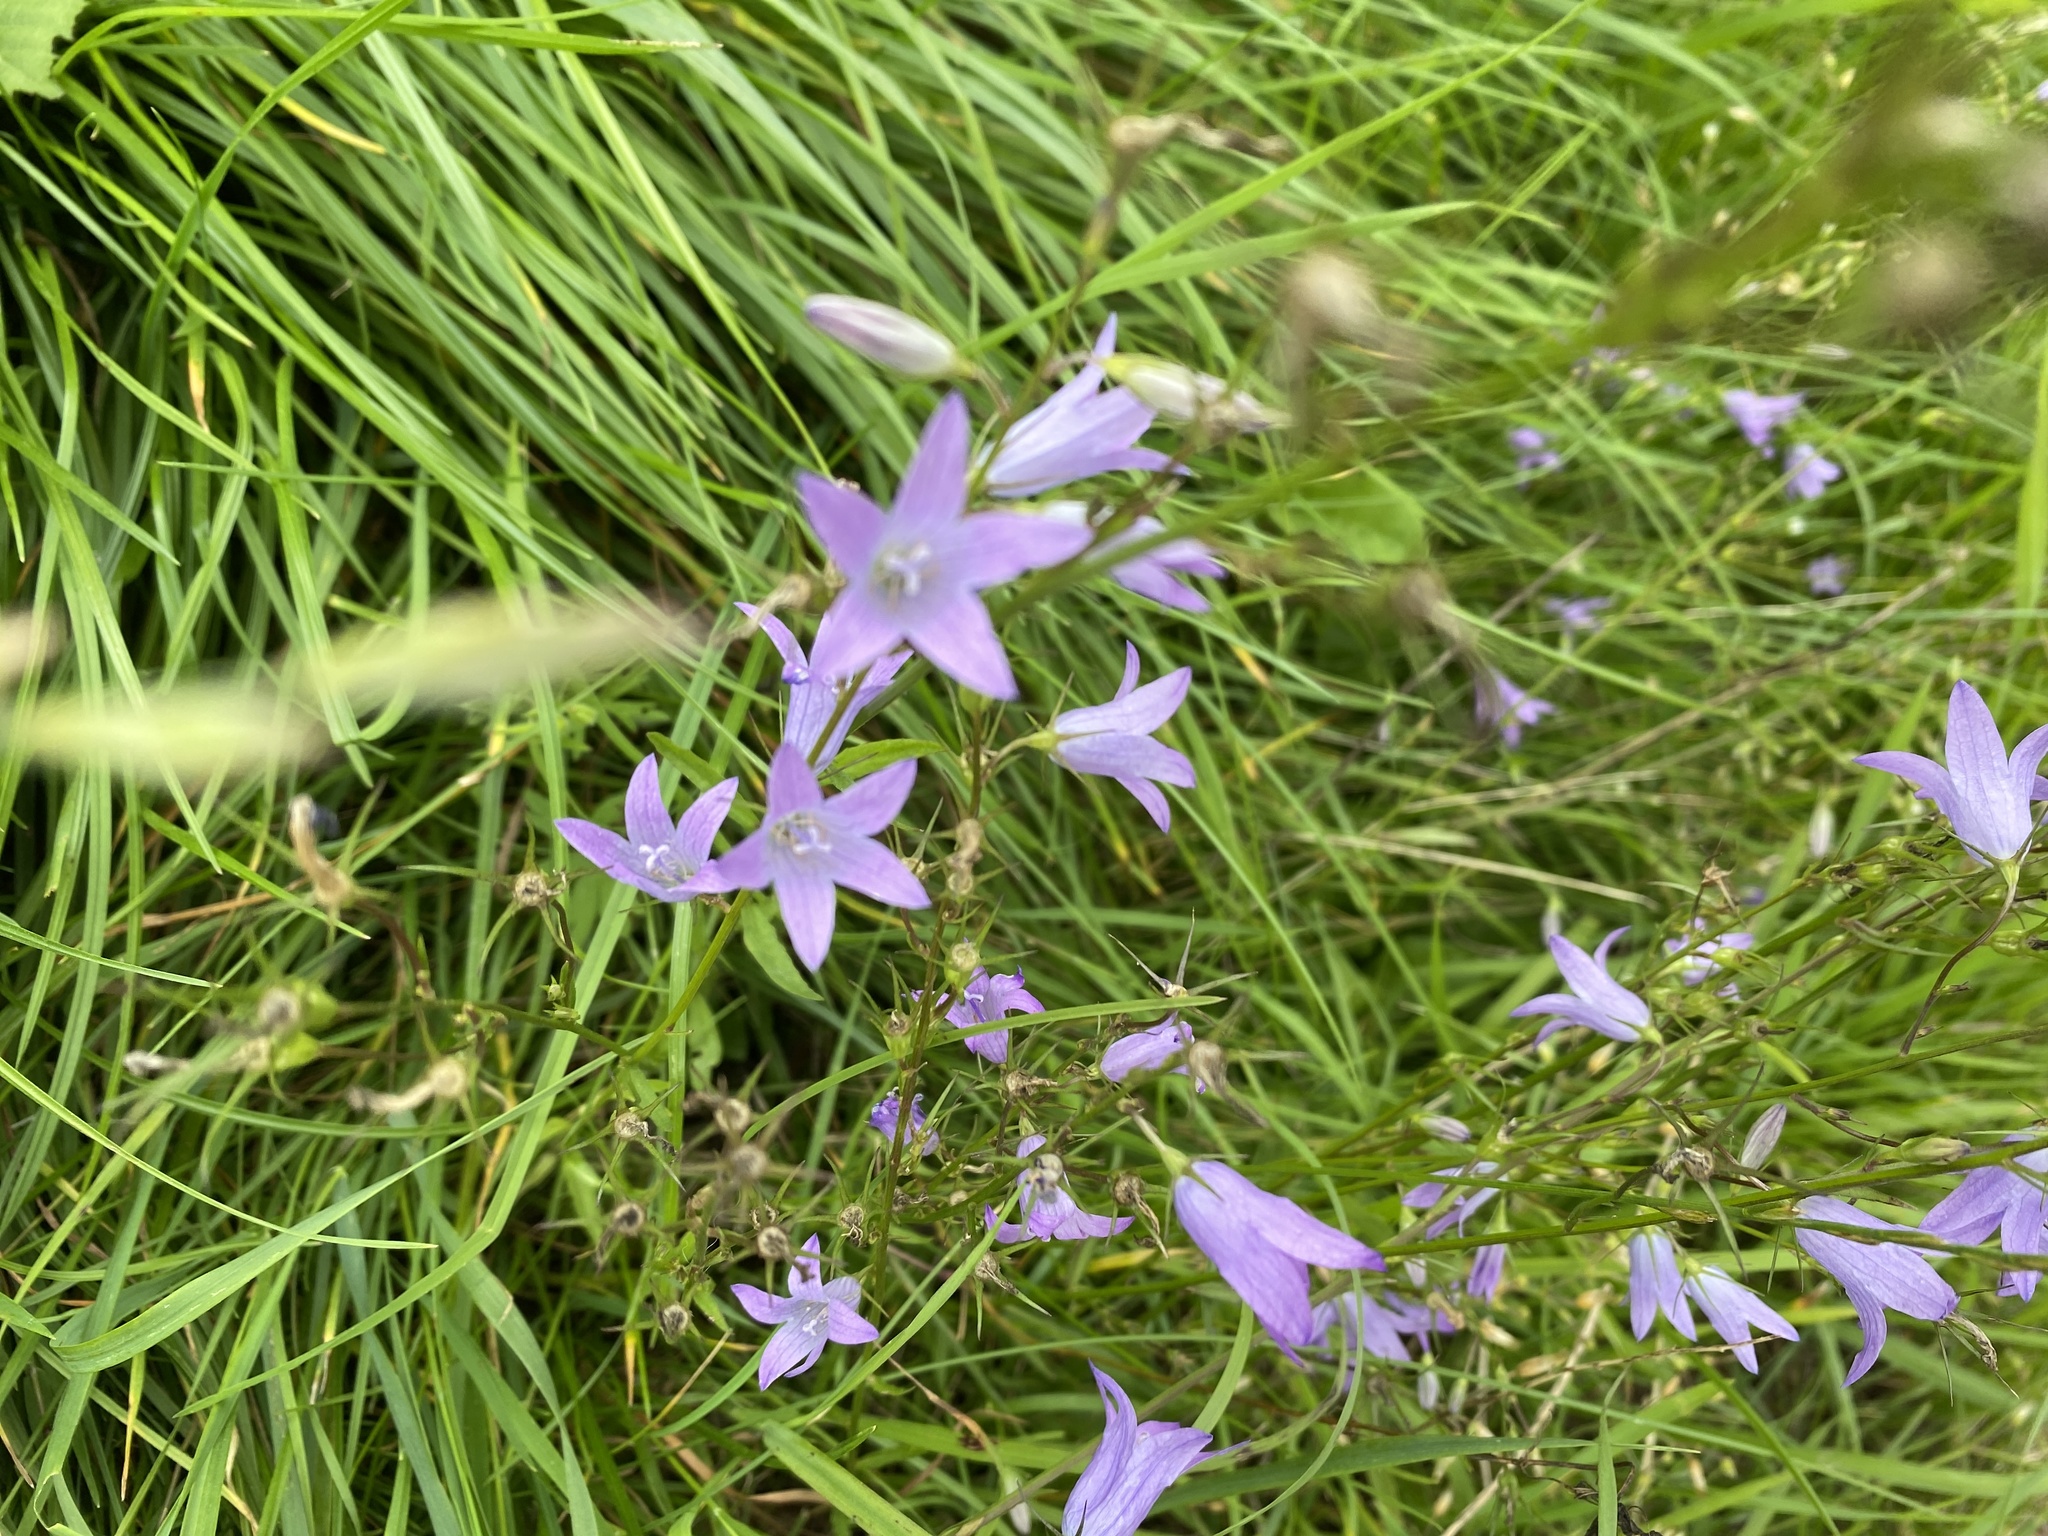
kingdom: Plantae
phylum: Tracheophyta
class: Magnoliopsida
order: Asterales
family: Campanulaceae
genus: Campanula
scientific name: Campanula rapunculus
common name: Rampion bellflower
